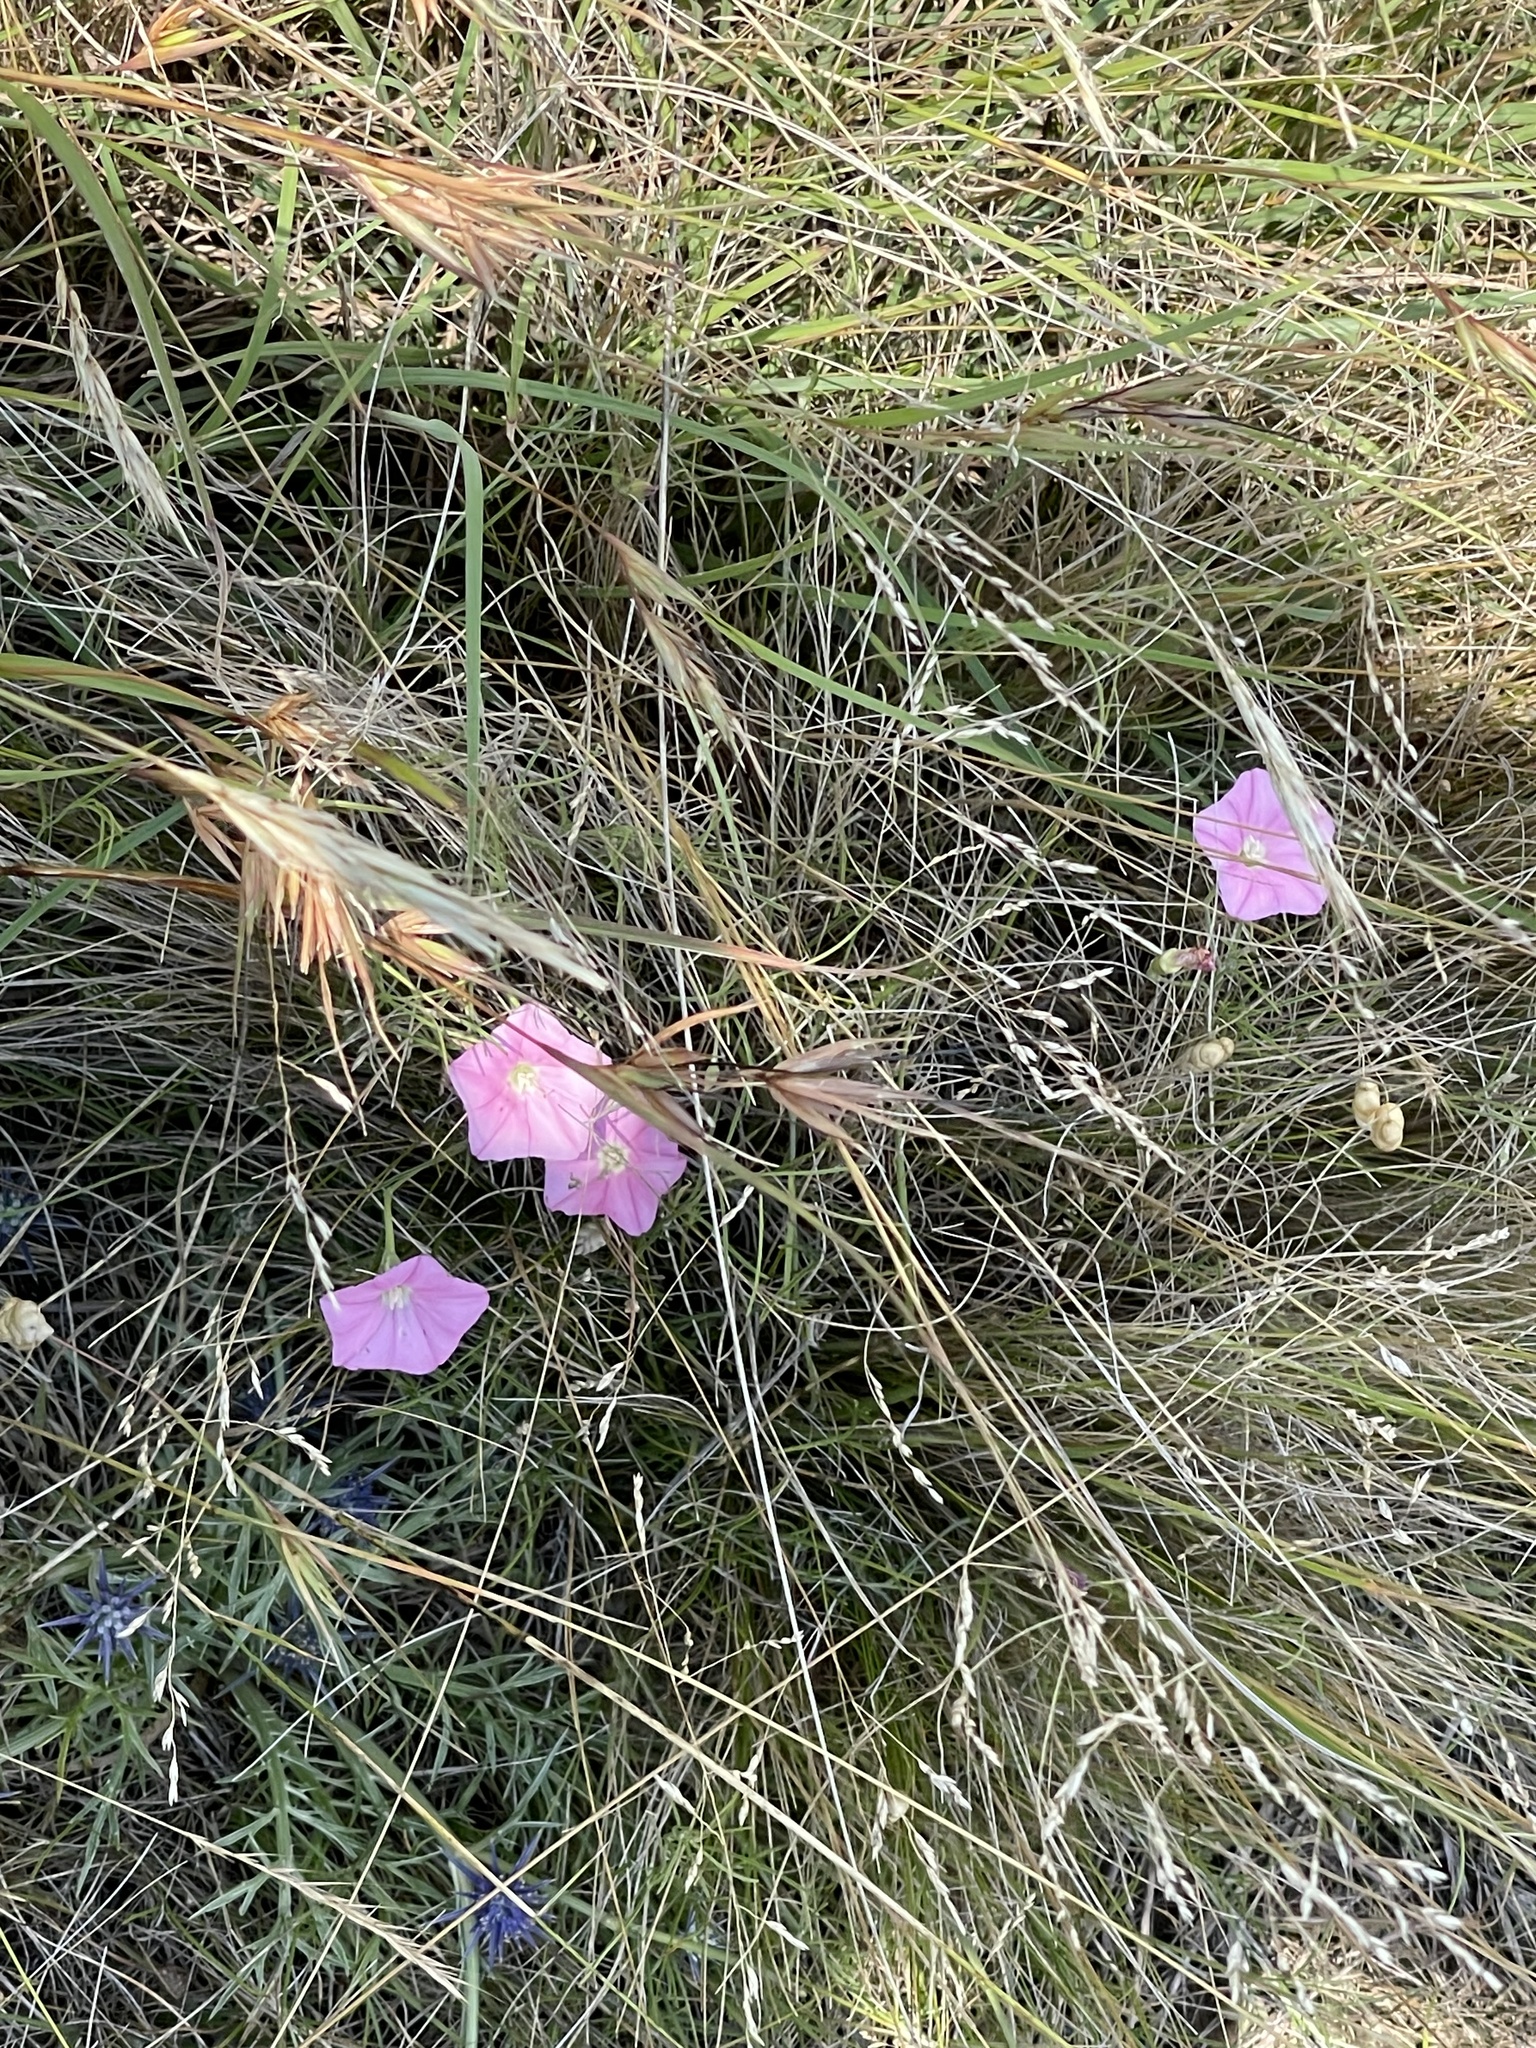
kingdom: Plantae
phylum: Tracheophyta
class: Magnoliopsida
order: Solanales
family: Convolvulaceae
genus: Convolvulus
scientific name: Convolvulus angustissimus
